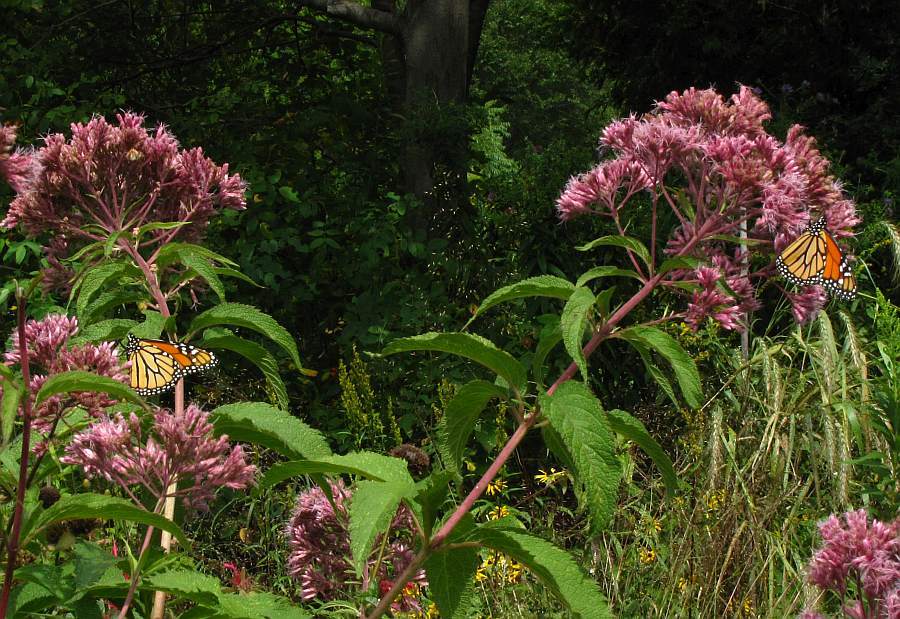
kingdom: Animalia
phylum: Arthropoda
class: Insecta
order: Lepidoptera
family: Nymphalidae
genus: Danaus
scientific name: Danaus plexippus
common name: Monarch
